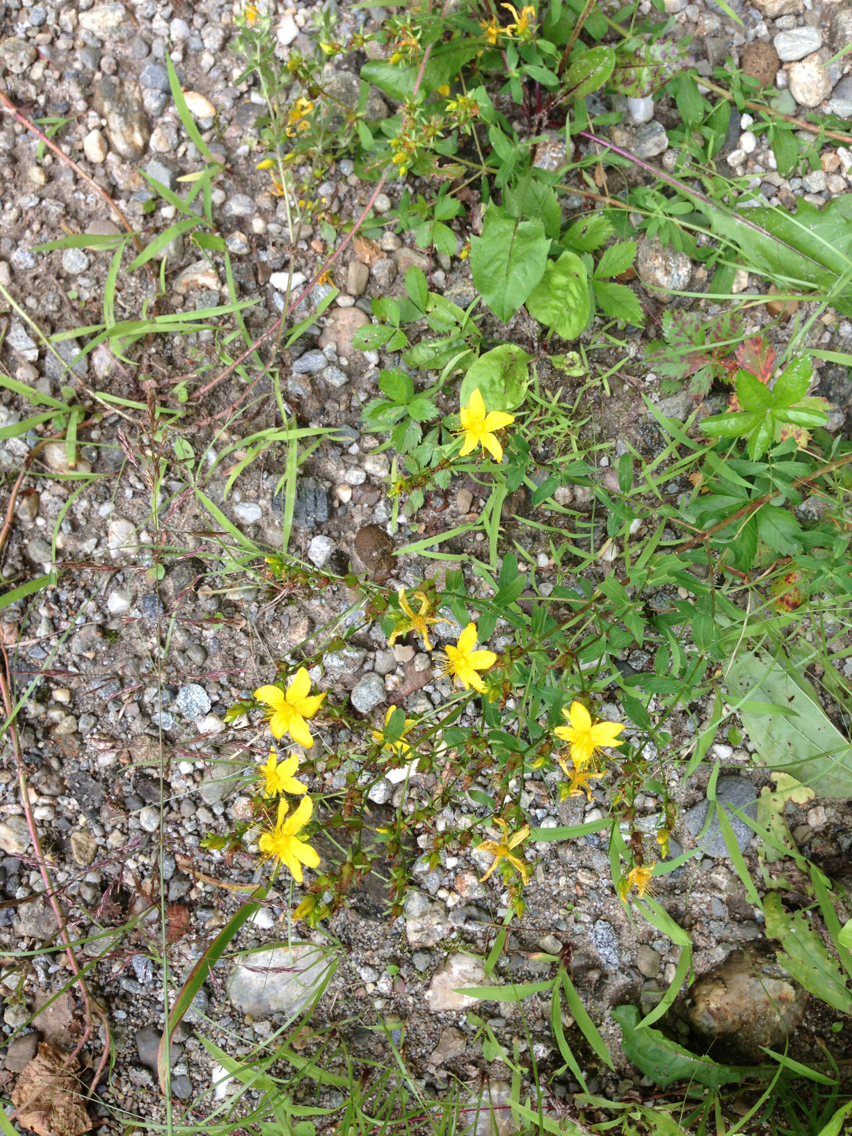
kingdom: Plantae
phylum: Tracheophyta
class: Magnoliopsida
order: Malpighiales
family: Hypericaceae
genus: Hypericum
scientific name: Hypericum perforatum
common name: Common st. johnswort
